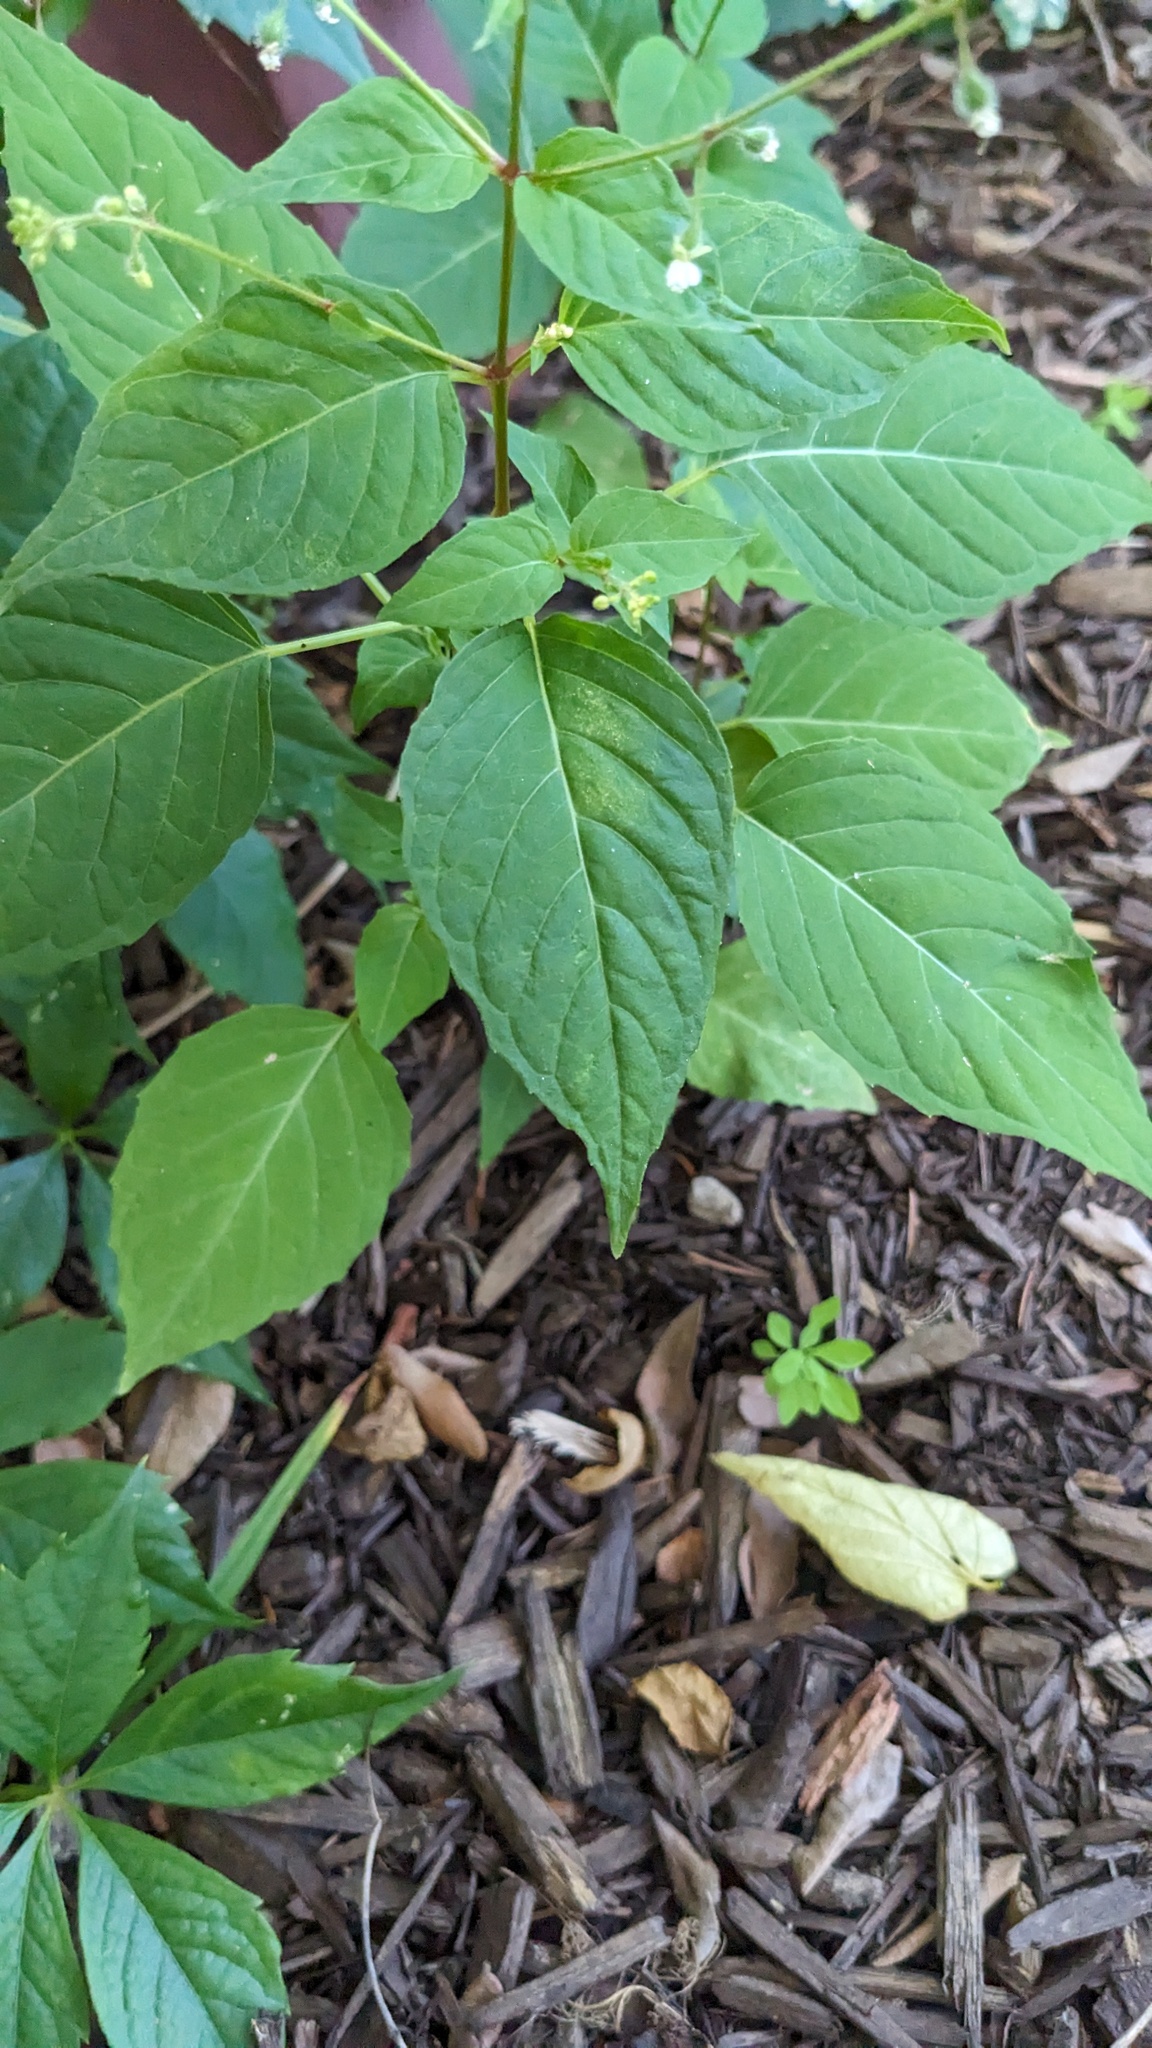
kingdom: Plantae
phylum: Tracheophyta
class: Magnoliopsida
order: Myrtales
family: Onagraceae
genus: Circaea
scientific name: Circaea canadensis
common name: Broad-leaved enchanter's nightshade
